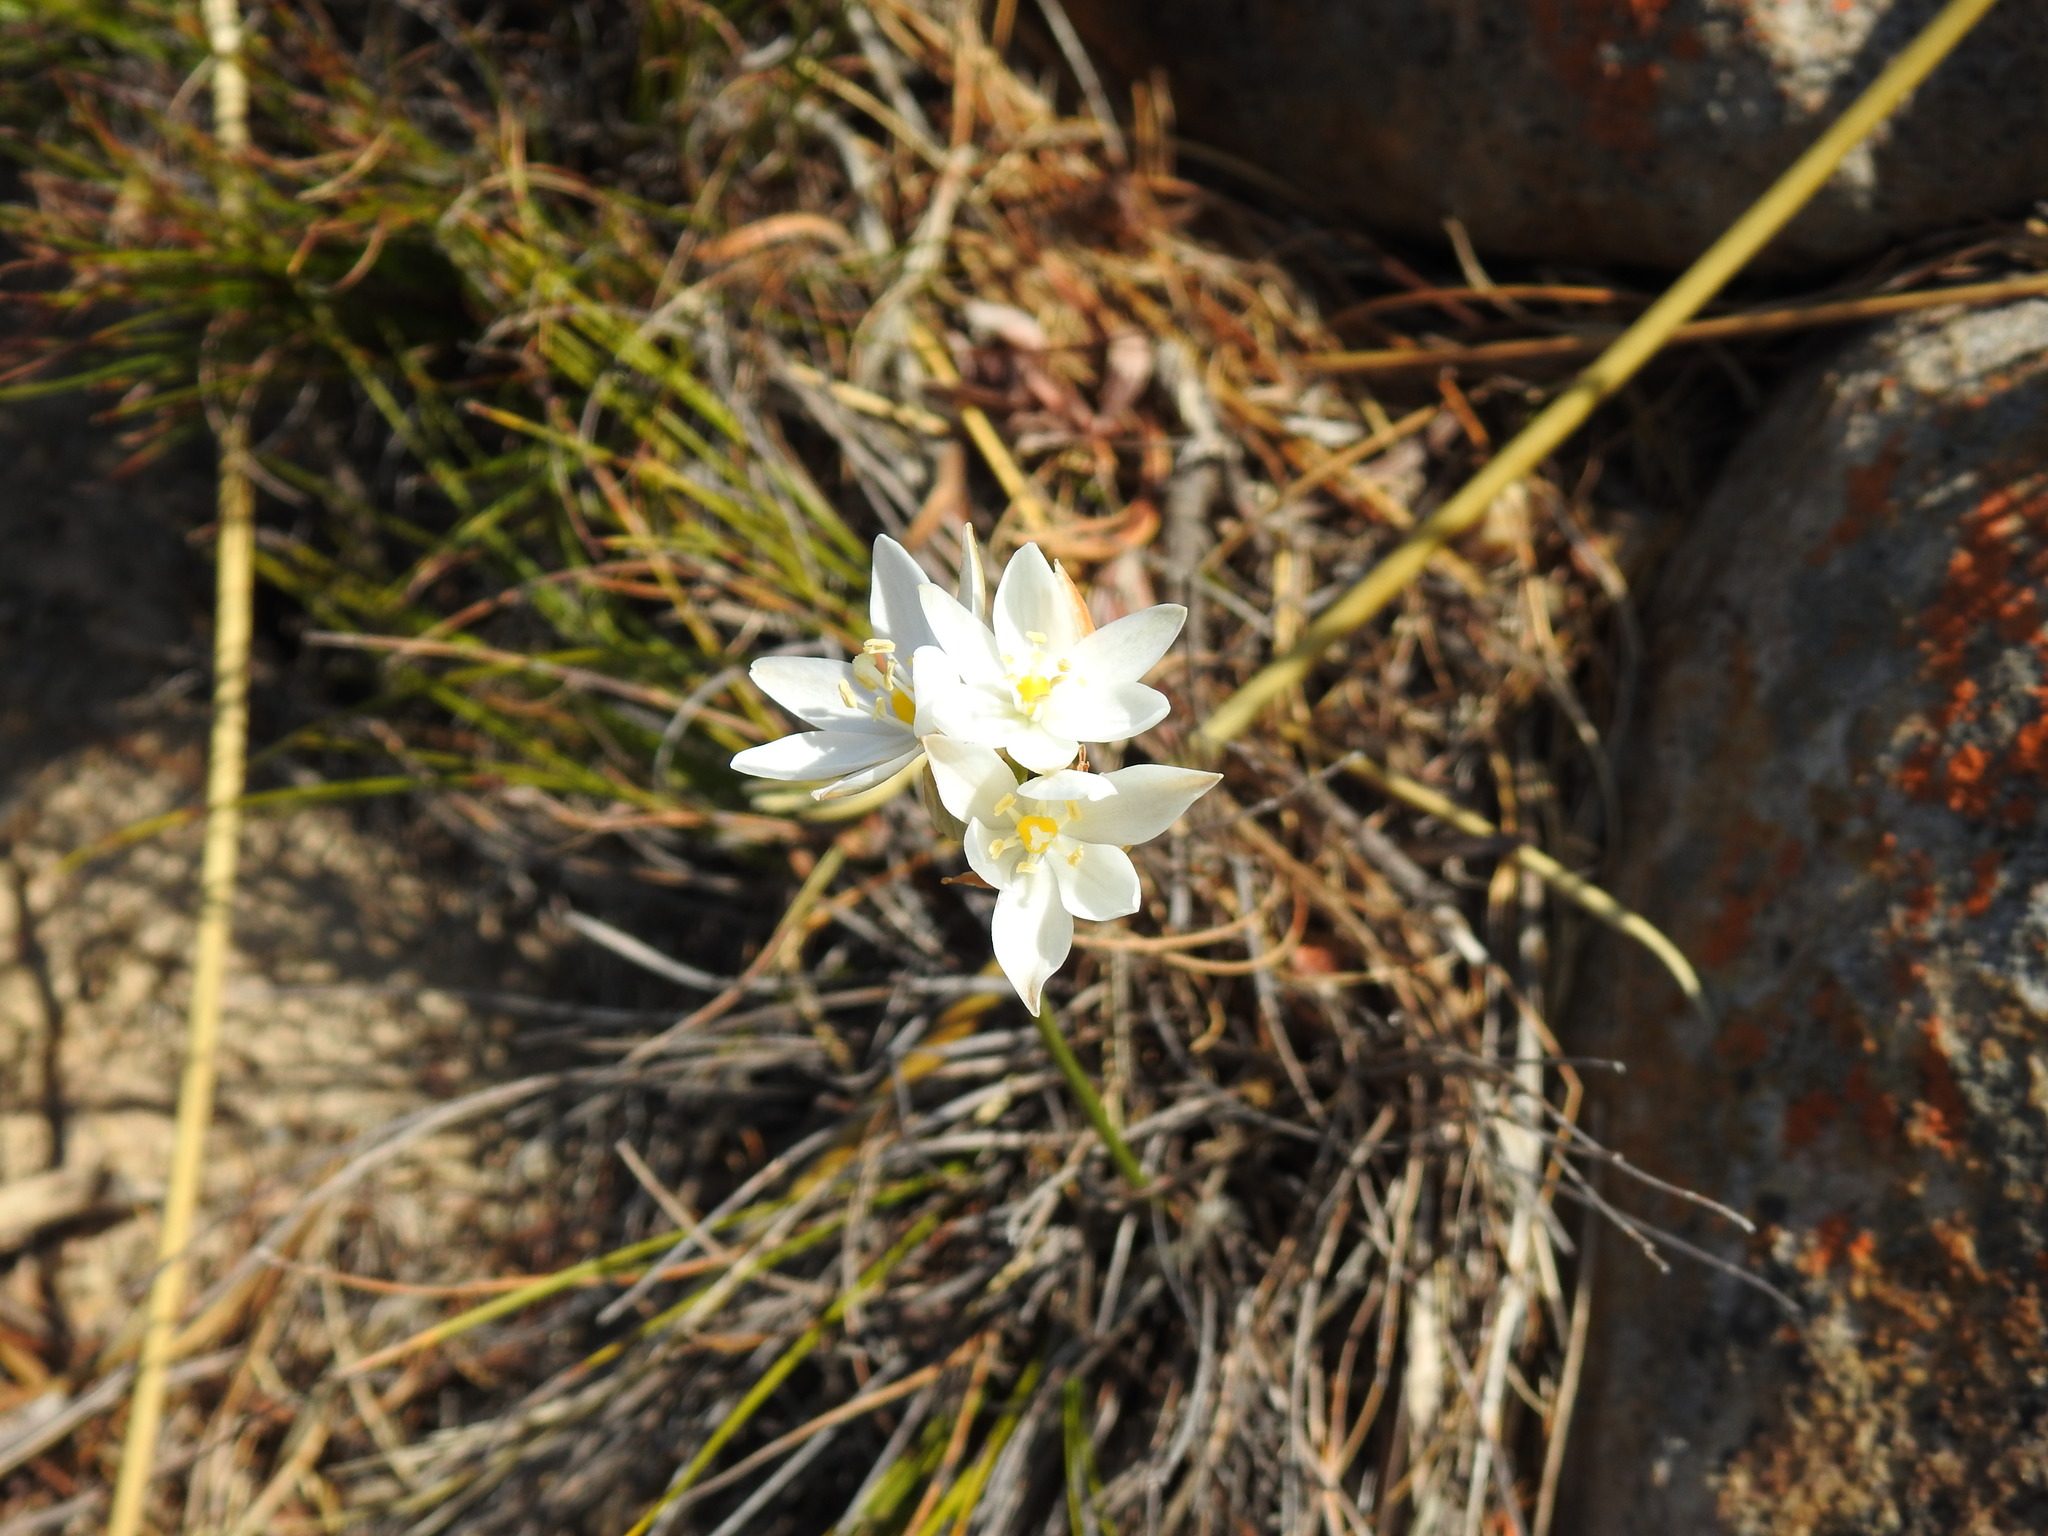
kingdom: Plantae
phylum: Tracheophyta
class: Liliopsida
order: Asparagales
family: Asparagaceae
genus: Ornithogalum
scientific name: Ornithogalum hispidum
